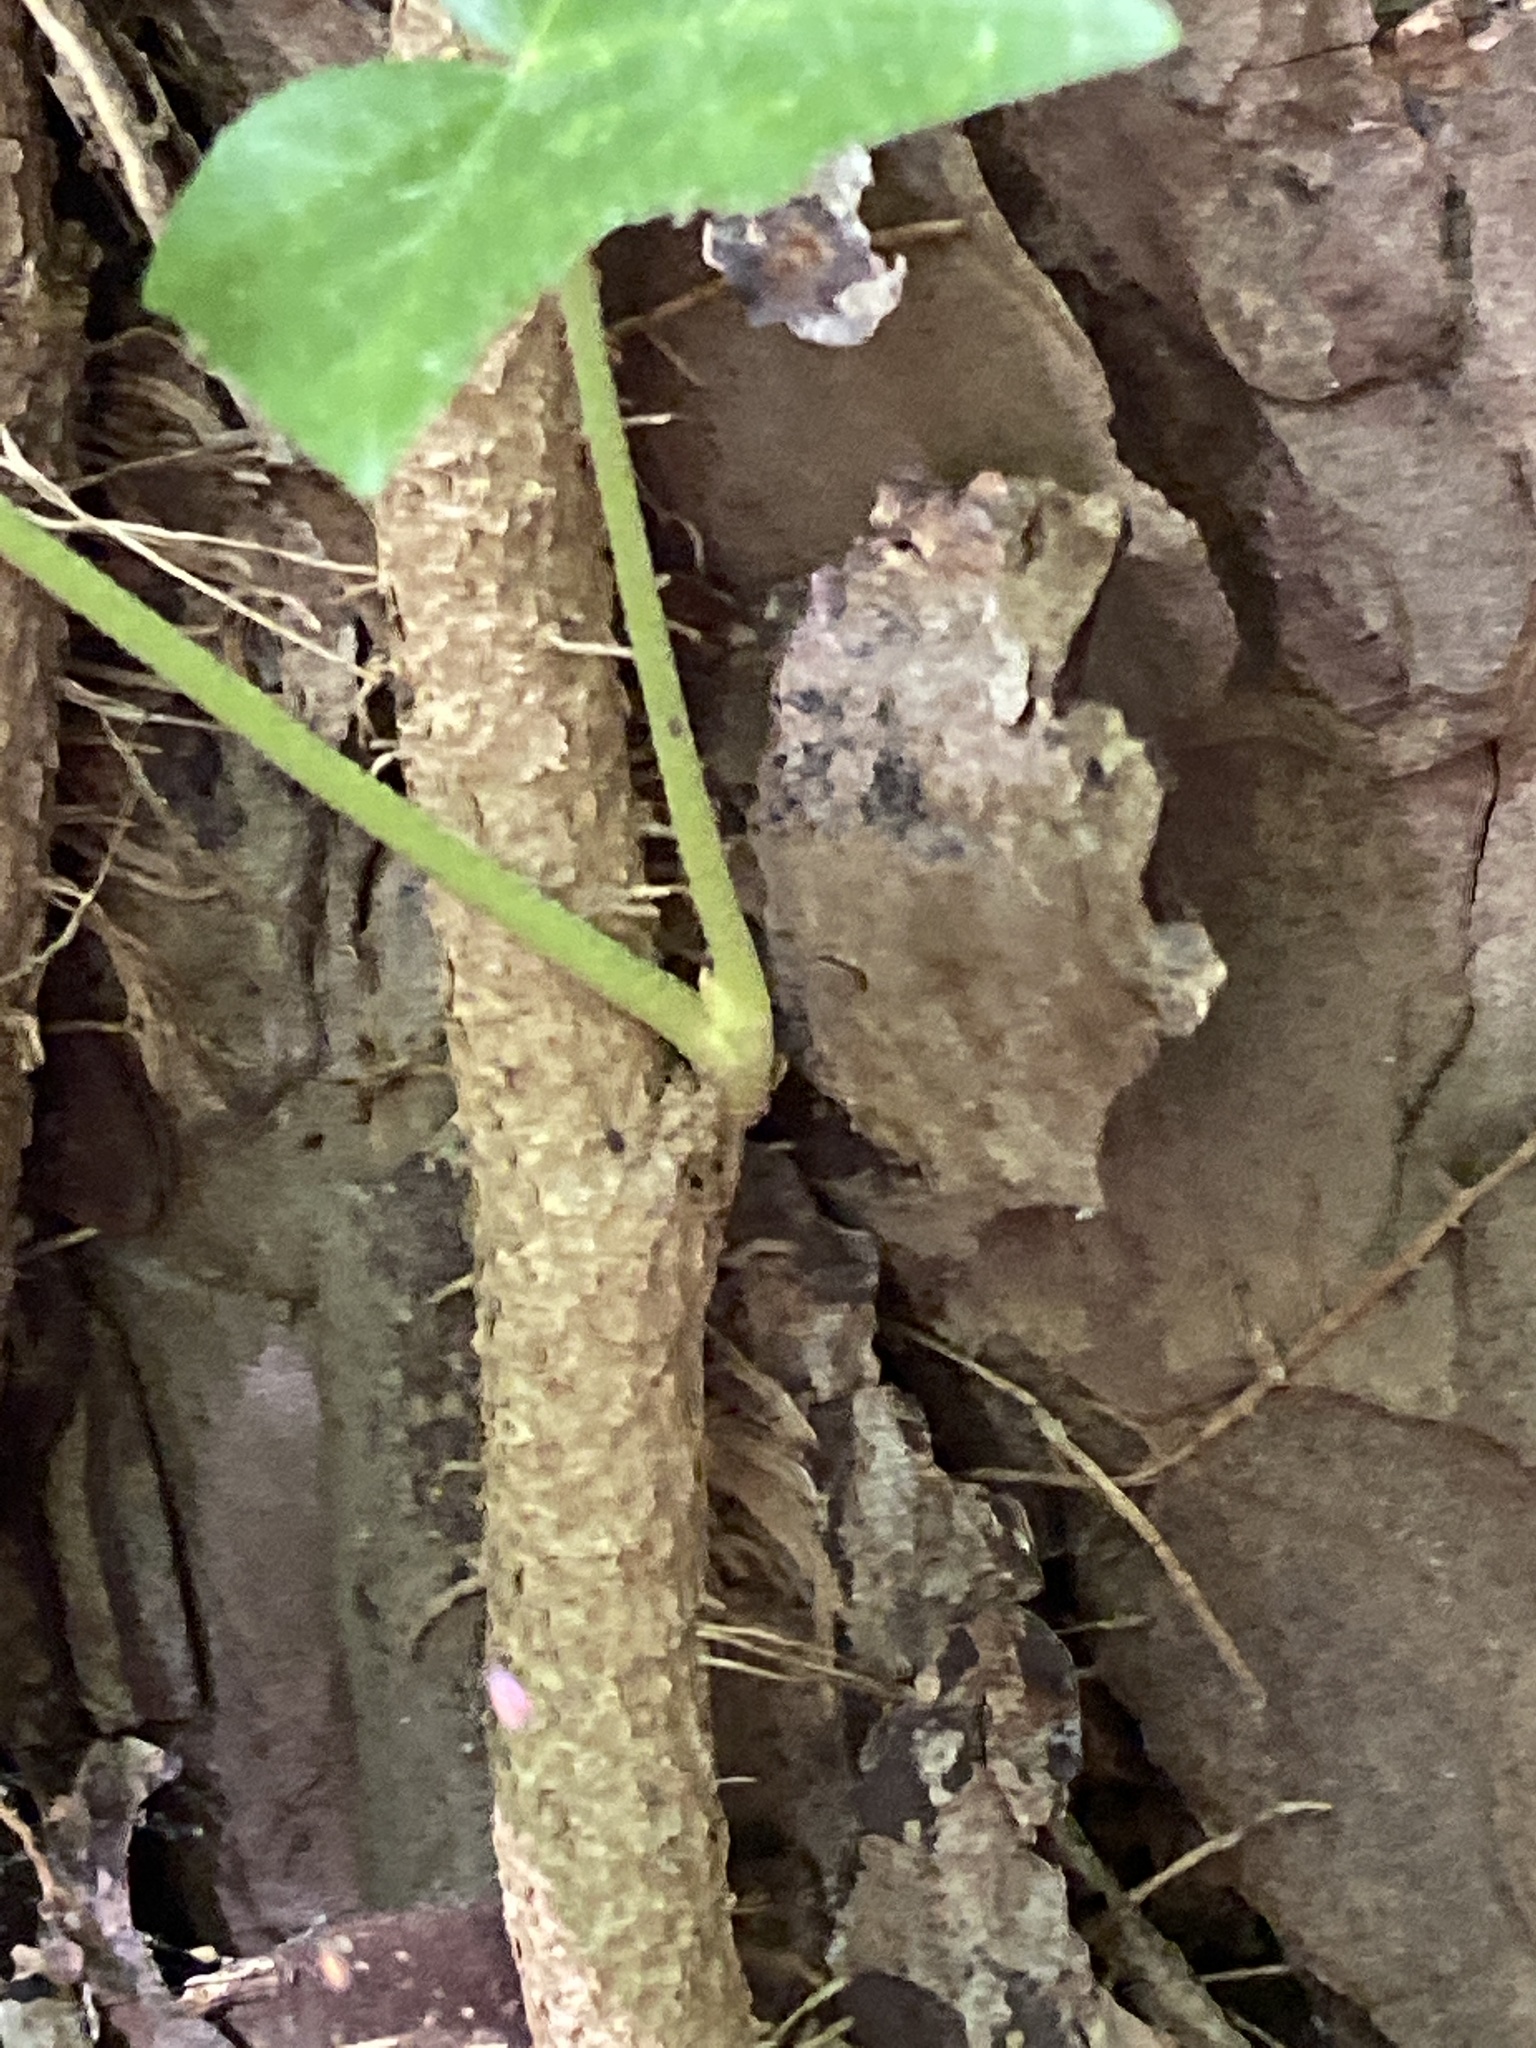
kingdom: Plantae
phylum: Tracheophyta
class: Magnoliopsida
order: Apiales
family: Araliaceae
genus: Hedera
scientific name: Hedera helix
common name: Ivy
